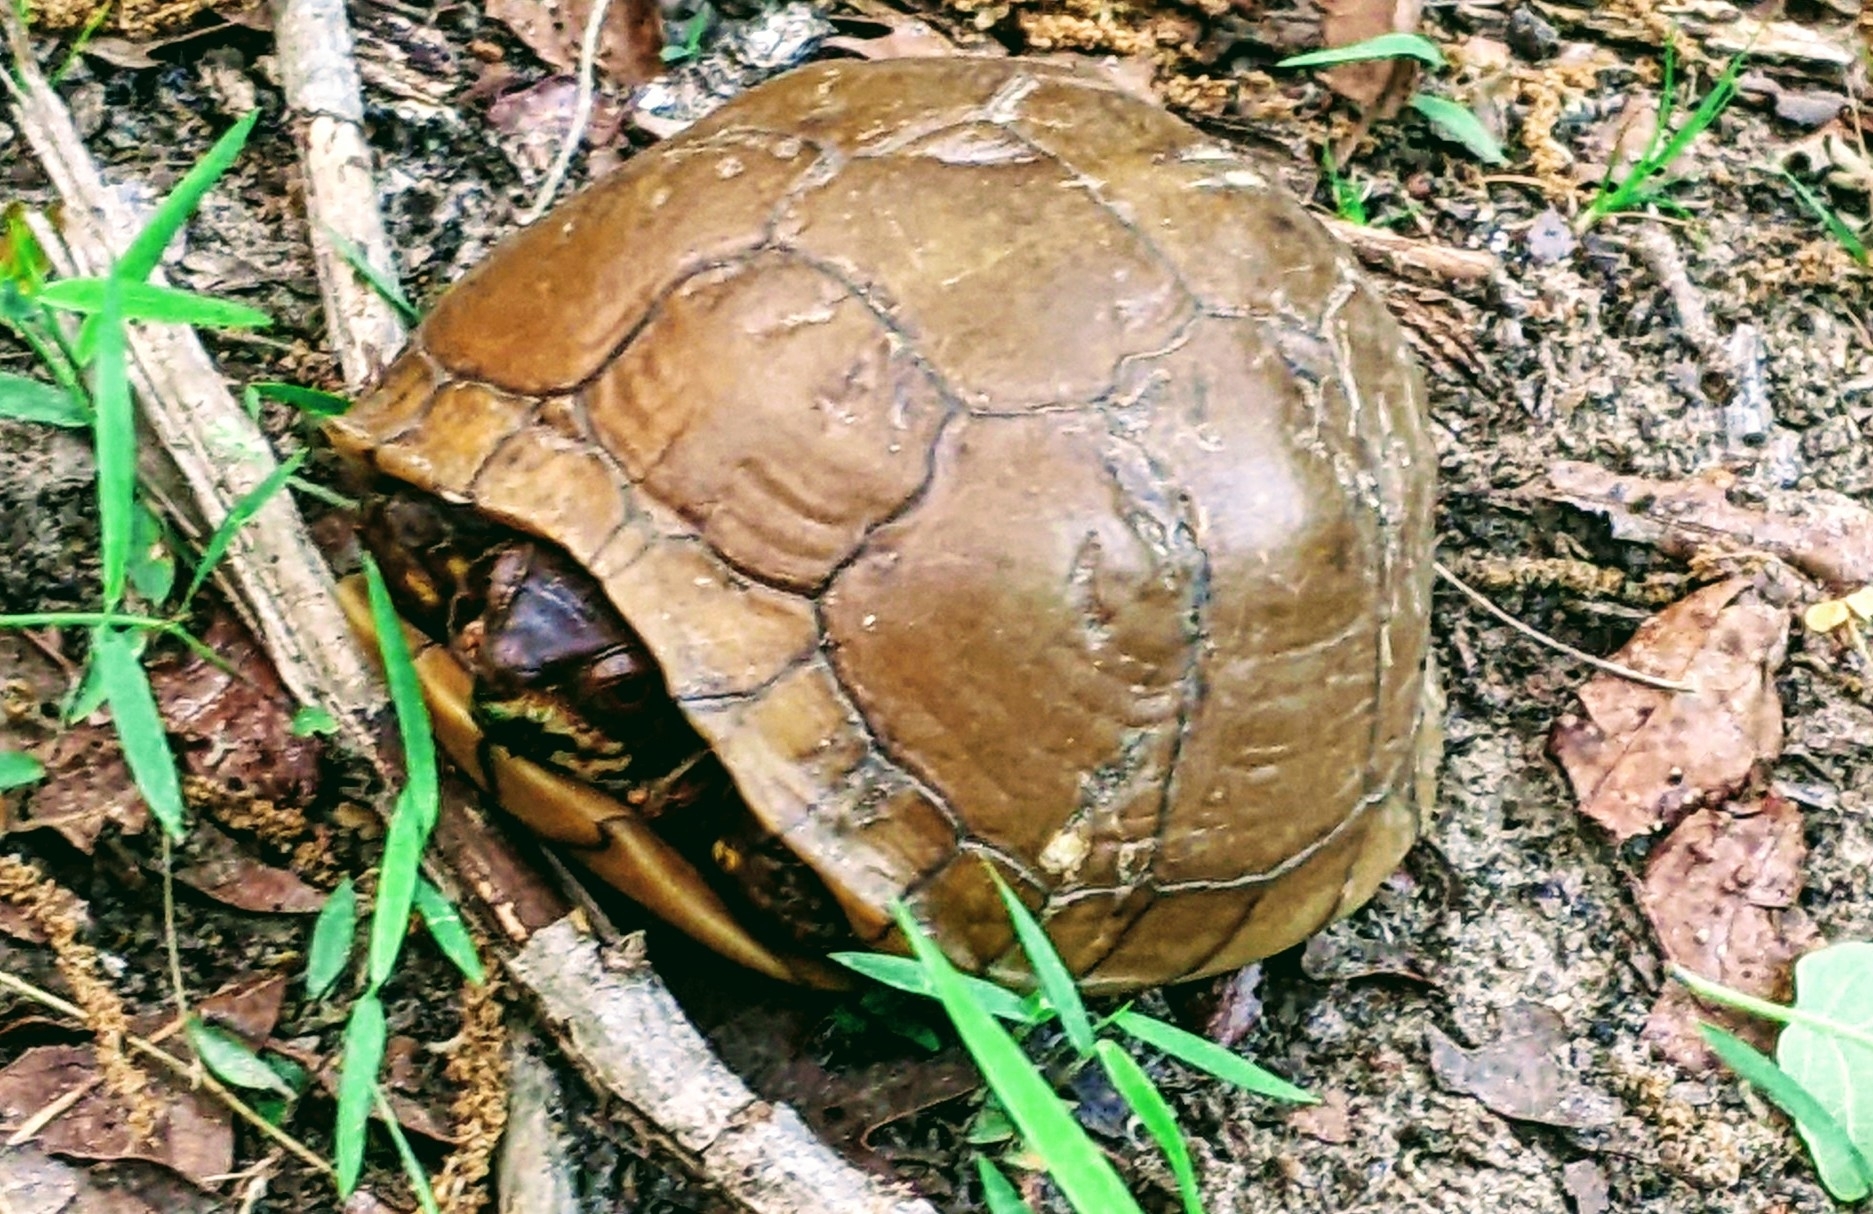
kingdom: Animalia
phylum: Chordata
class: Testudines
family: Emydidae
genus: Terrapene
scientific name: Terrapene carolina
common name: Common box turtle
